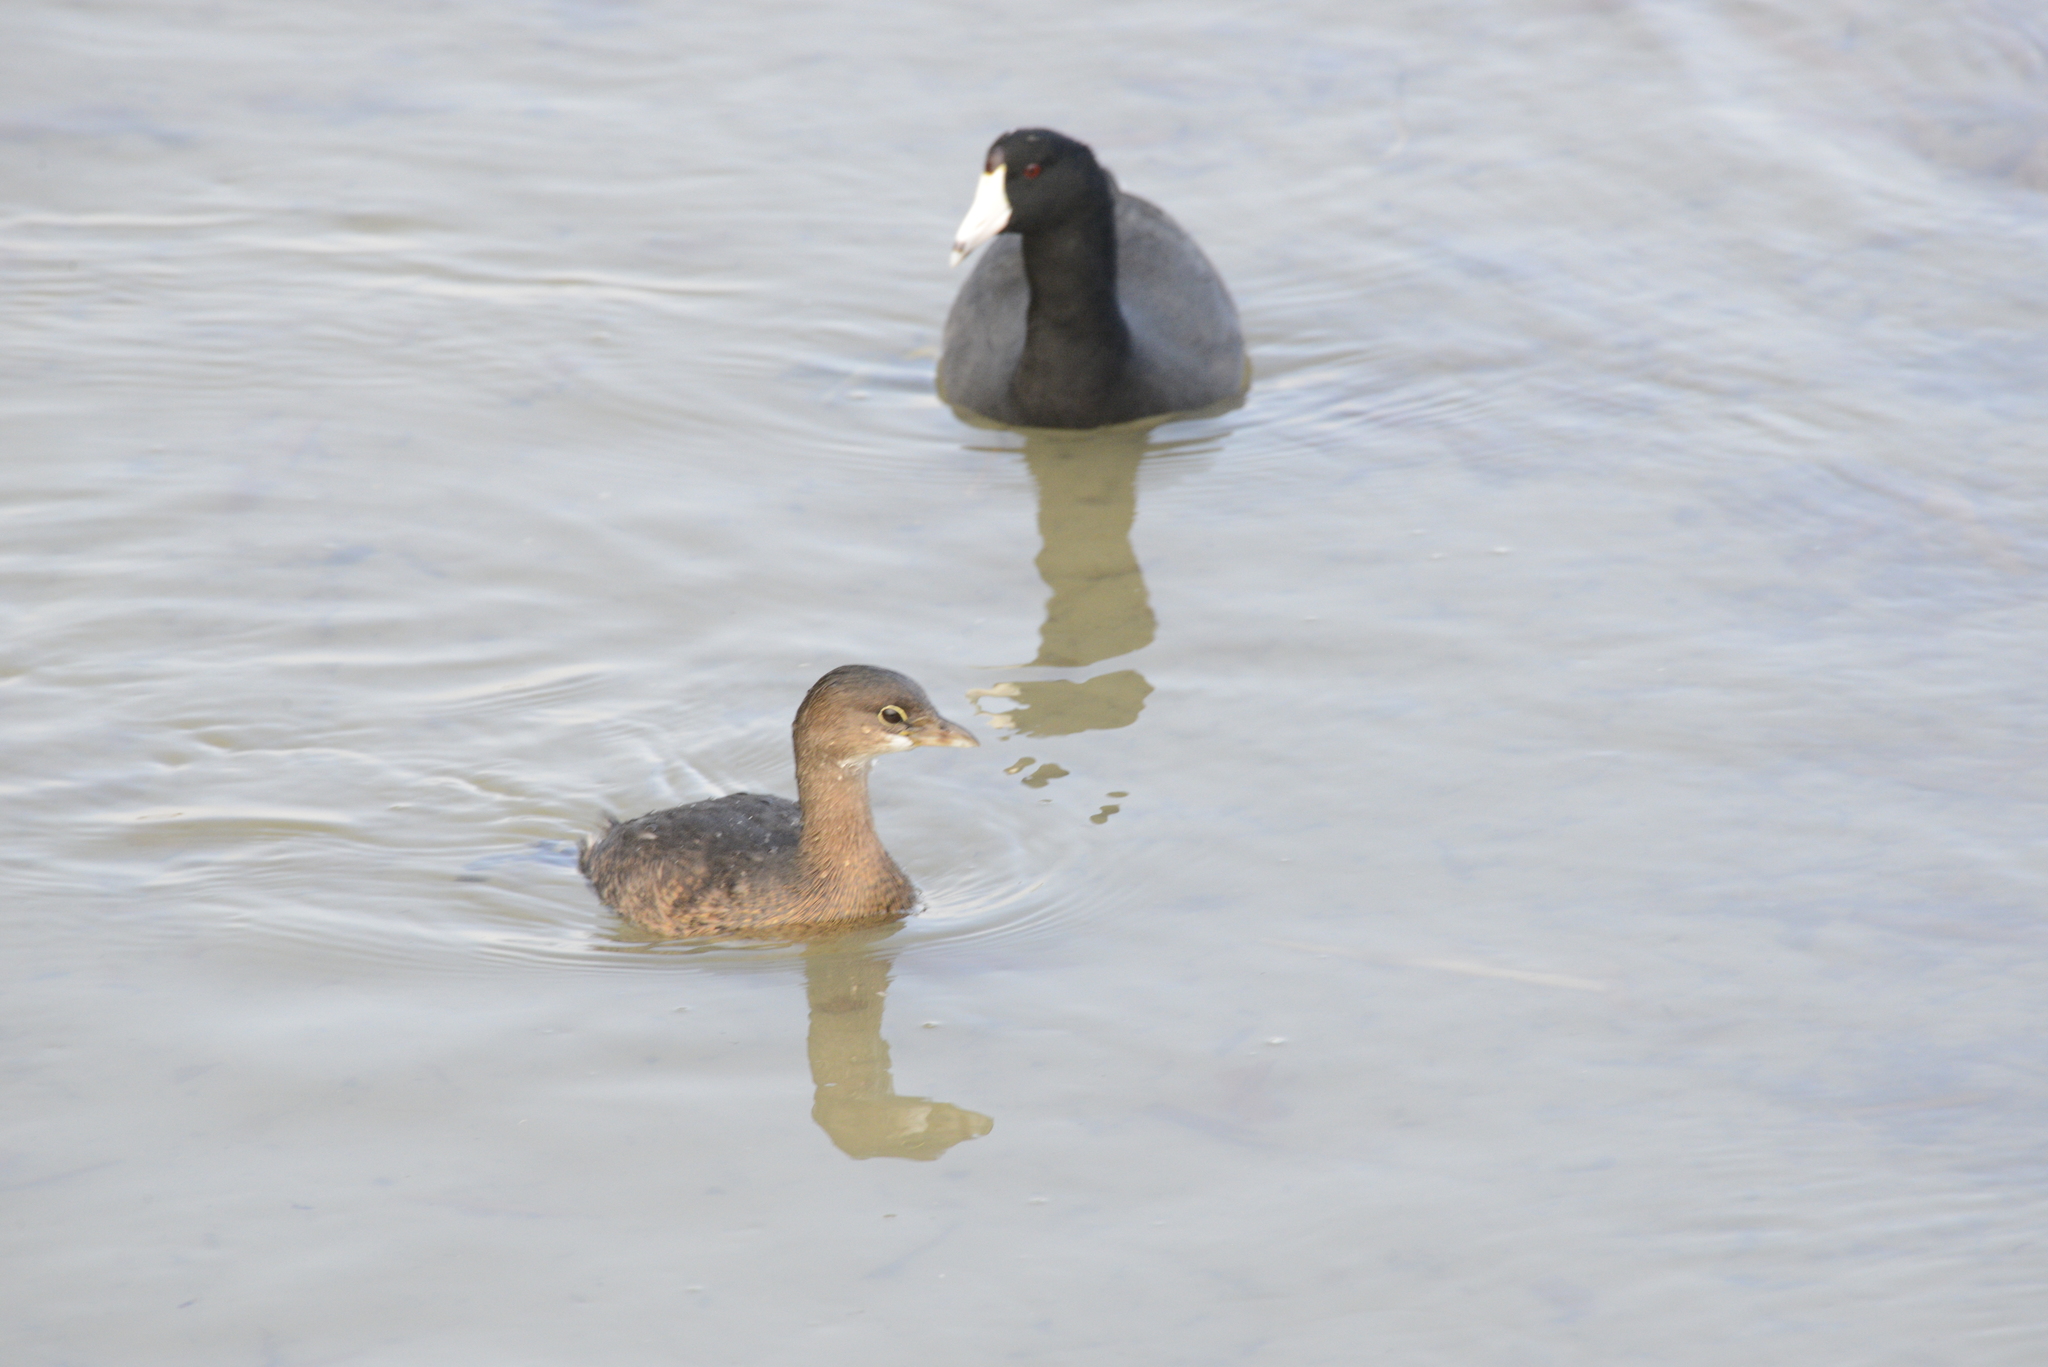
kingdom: Animalia
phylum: Chordata
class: Aves
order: Podicipediformes
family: Podicipedidae
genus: Podilymbus
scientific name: Podilymbus podiceps
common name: Pied-billed grebe
